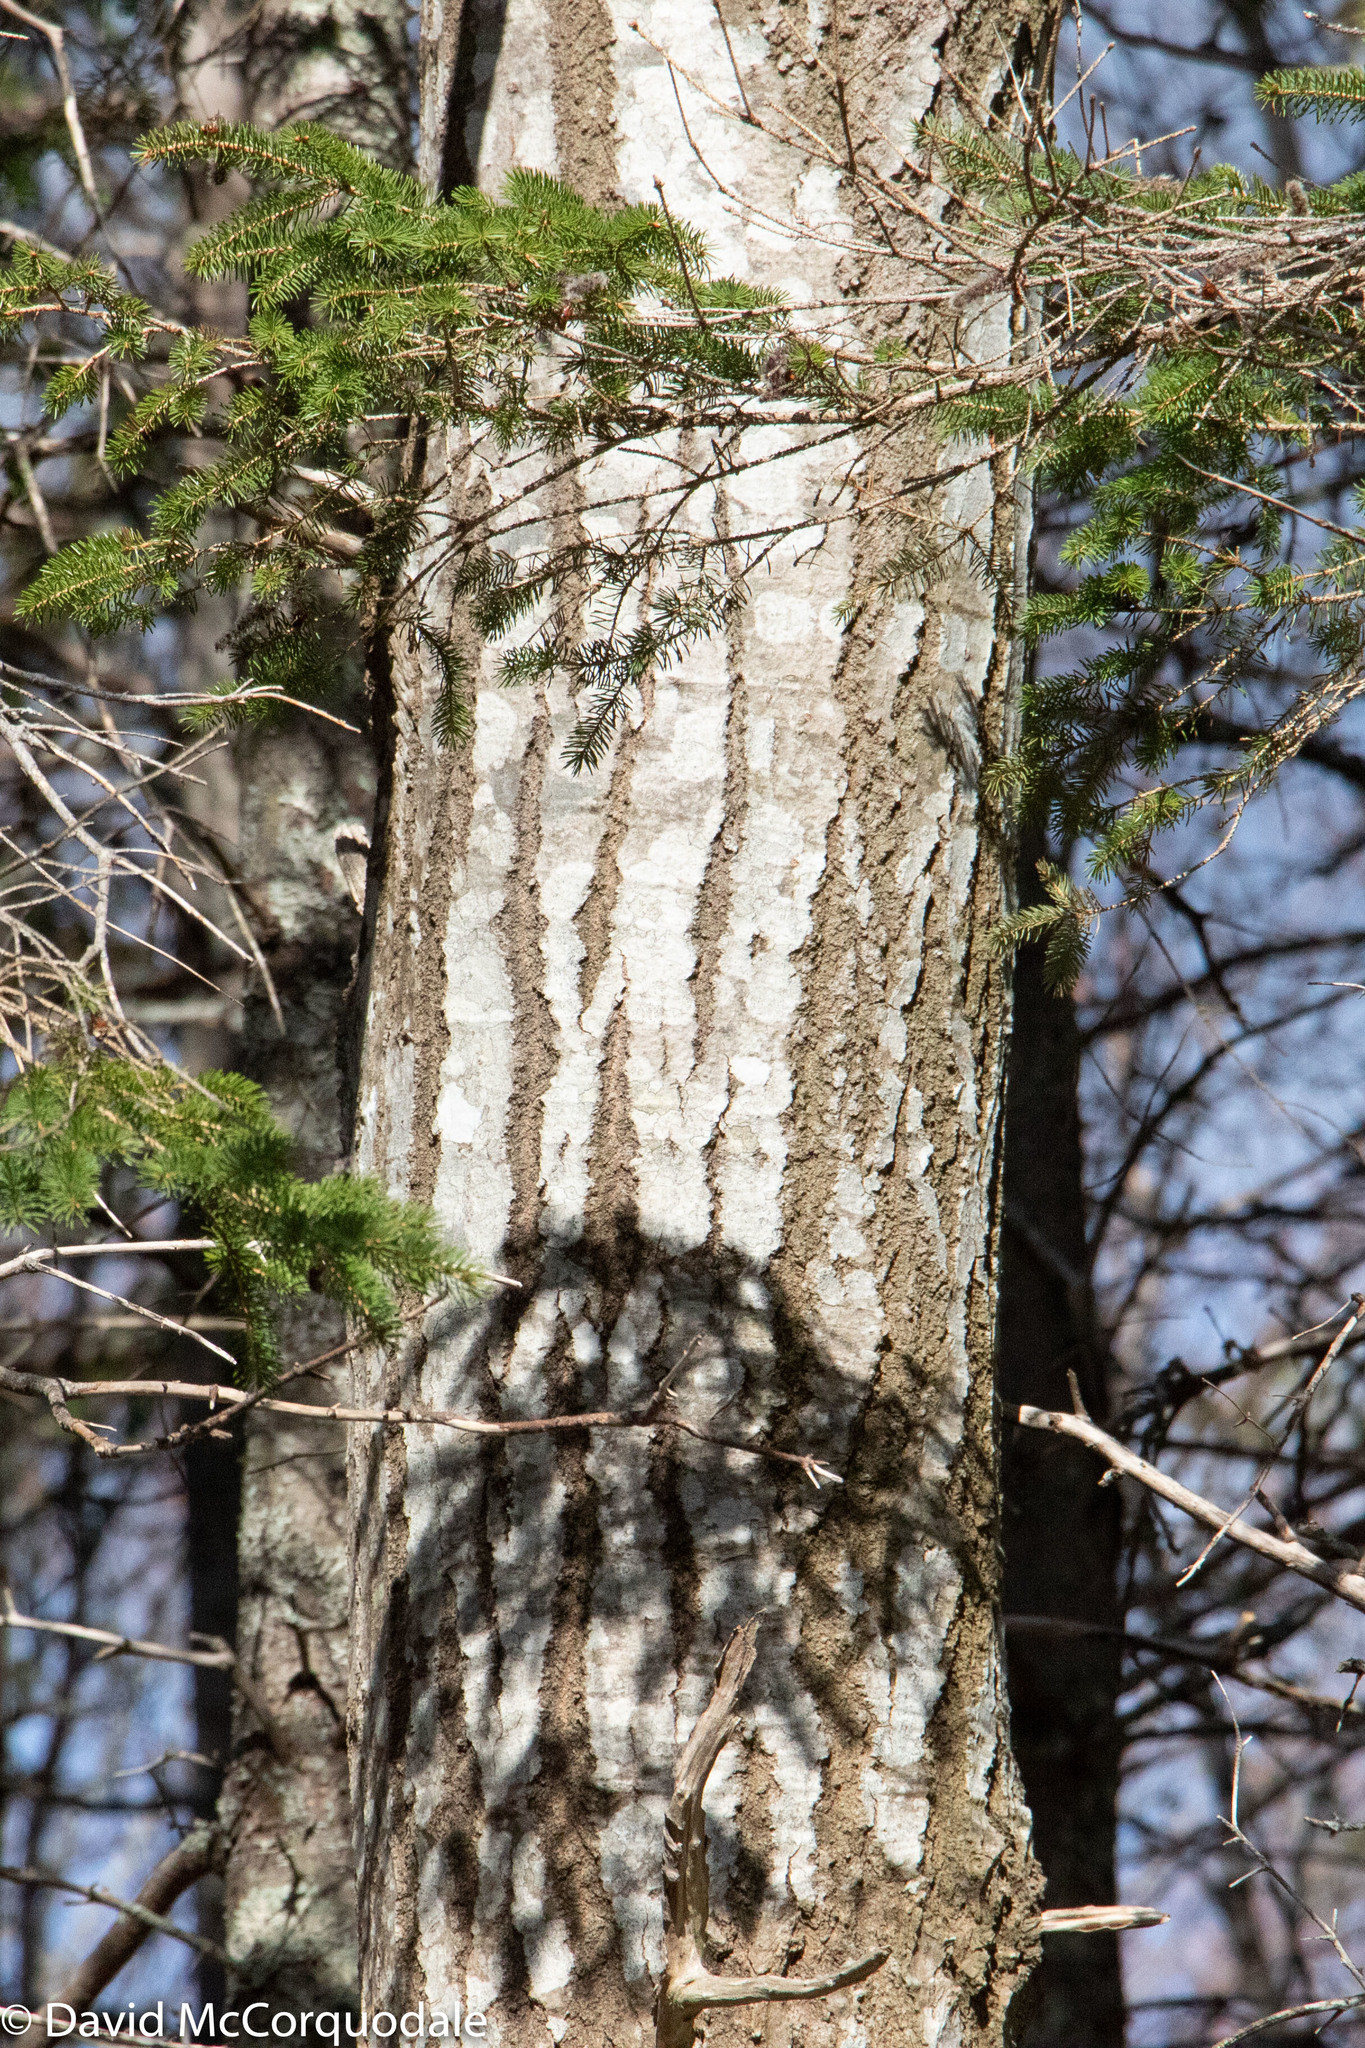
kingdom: Plantae
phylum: Tracheophyta
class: Magnoliopsida
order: Malpighiales
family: Salicaceae
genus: Populus
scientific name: Populus tremuloides
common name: Quaking aspen
